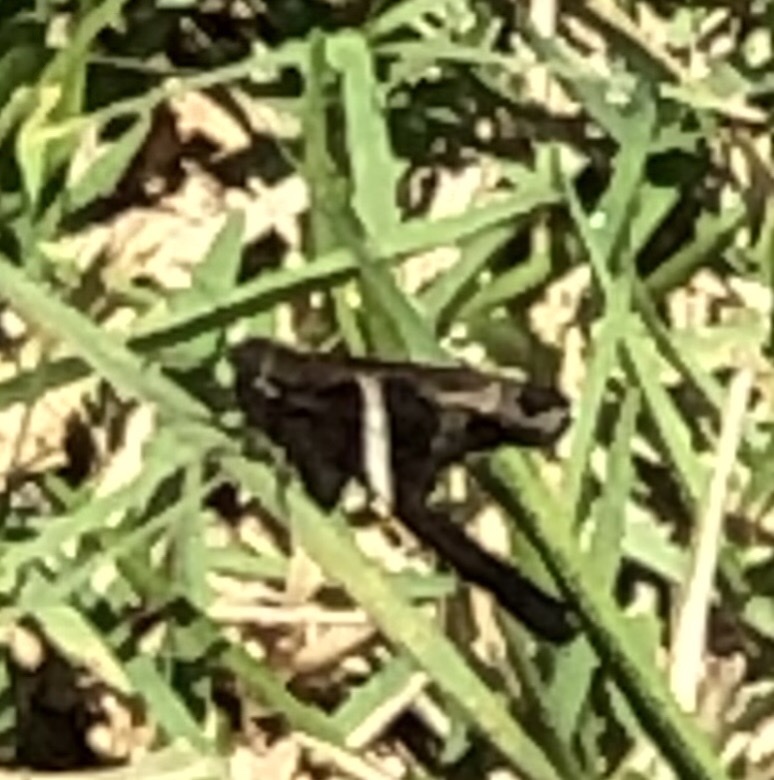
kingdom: Animalia
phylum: Arthropoda
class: Insecta
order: Lepidoptera
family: Hesperiidae
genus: Chioides
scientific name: Chioides catillus
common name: Silverbanded skipper
